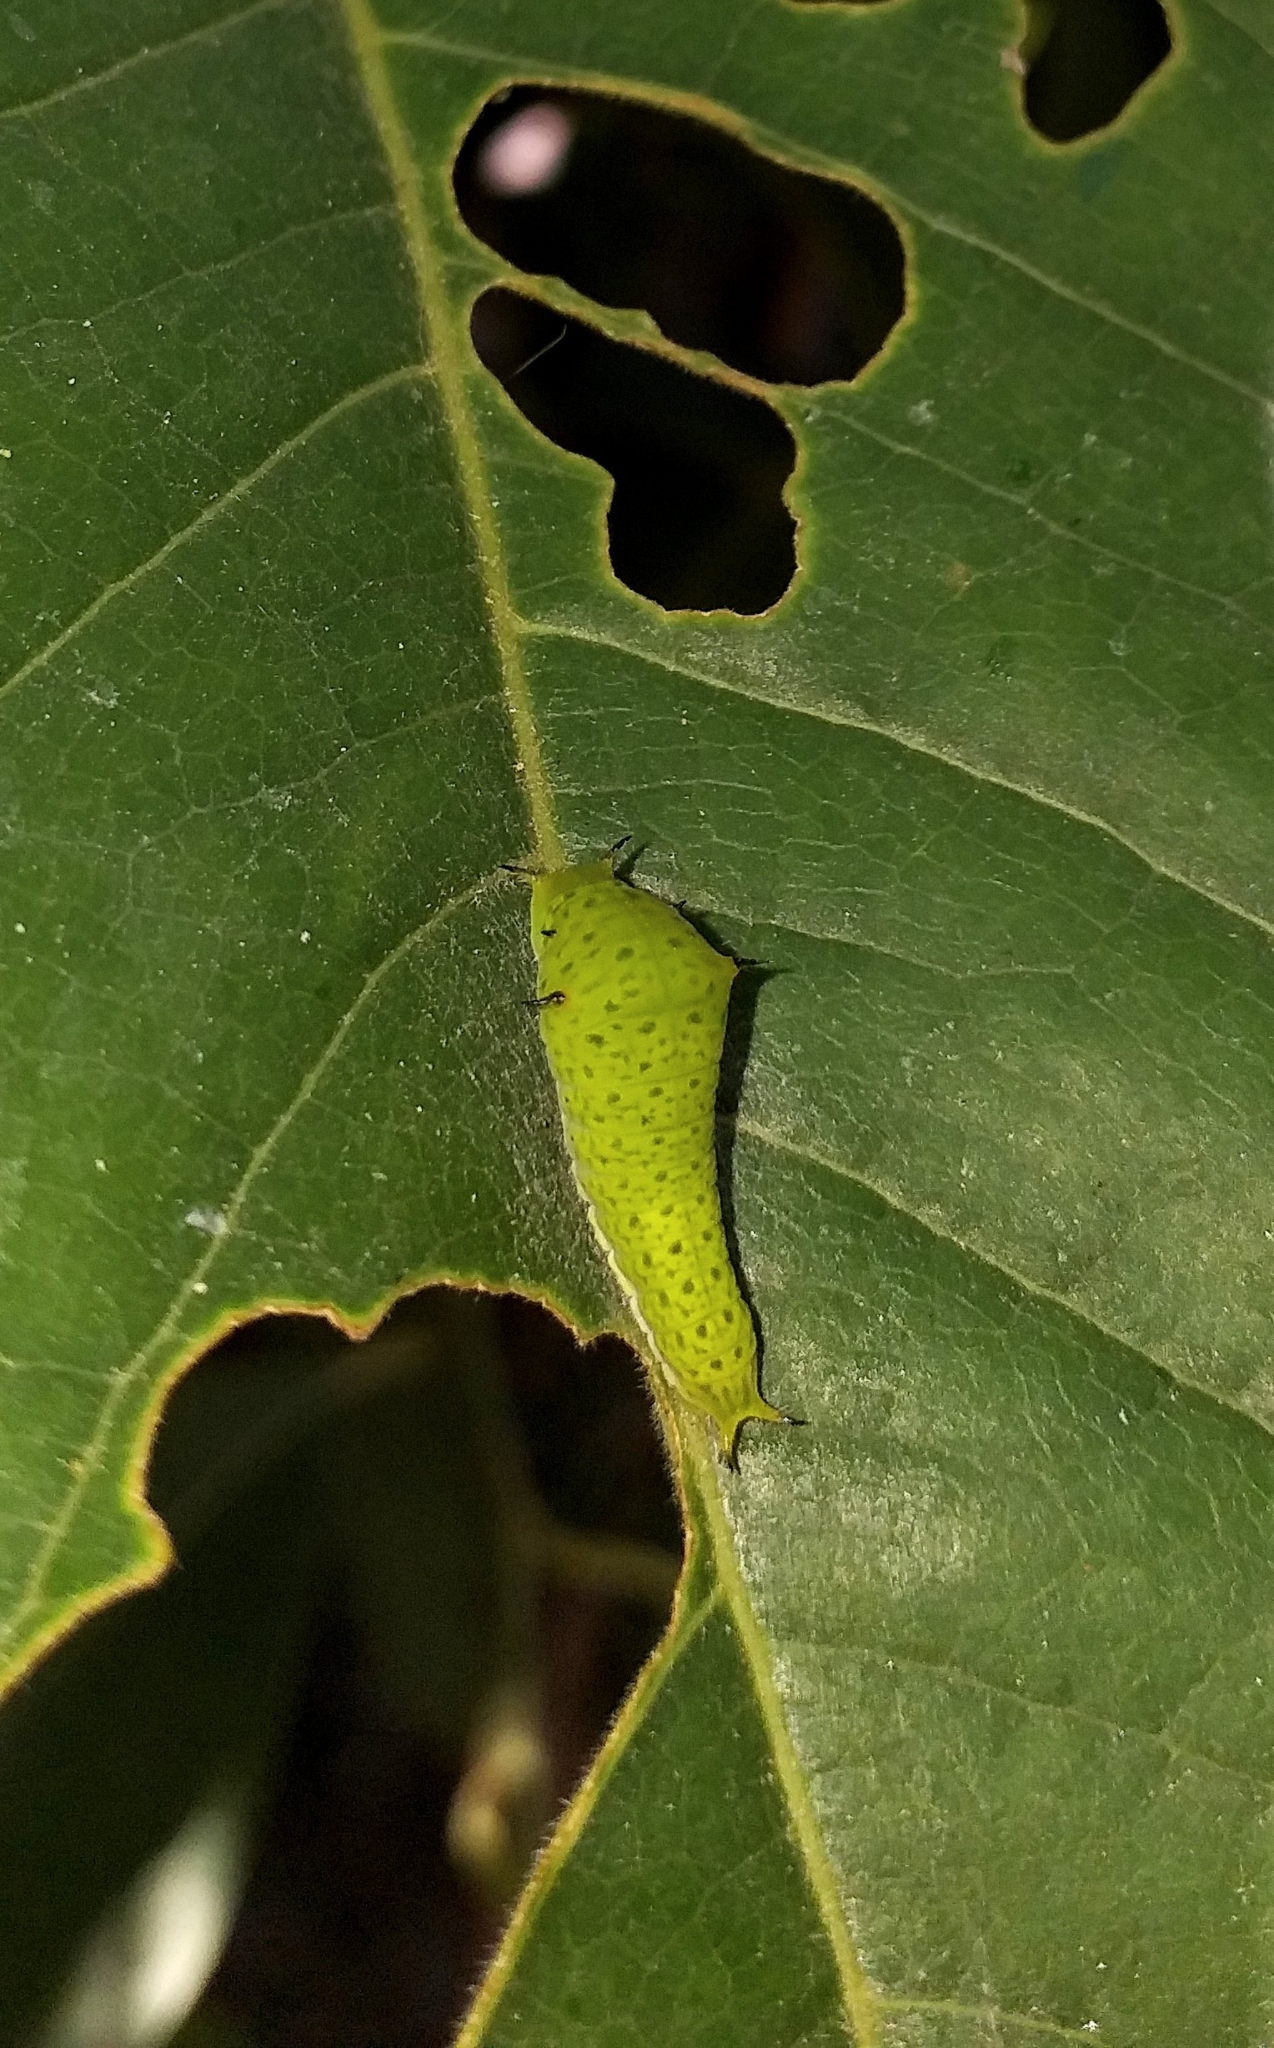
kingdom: Animalia
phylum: Arthropoda
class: Insecta
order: Lepidoptera
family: Papilionidae
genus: Graphium
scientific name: Graphium agamemnon
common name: Tailed jay
